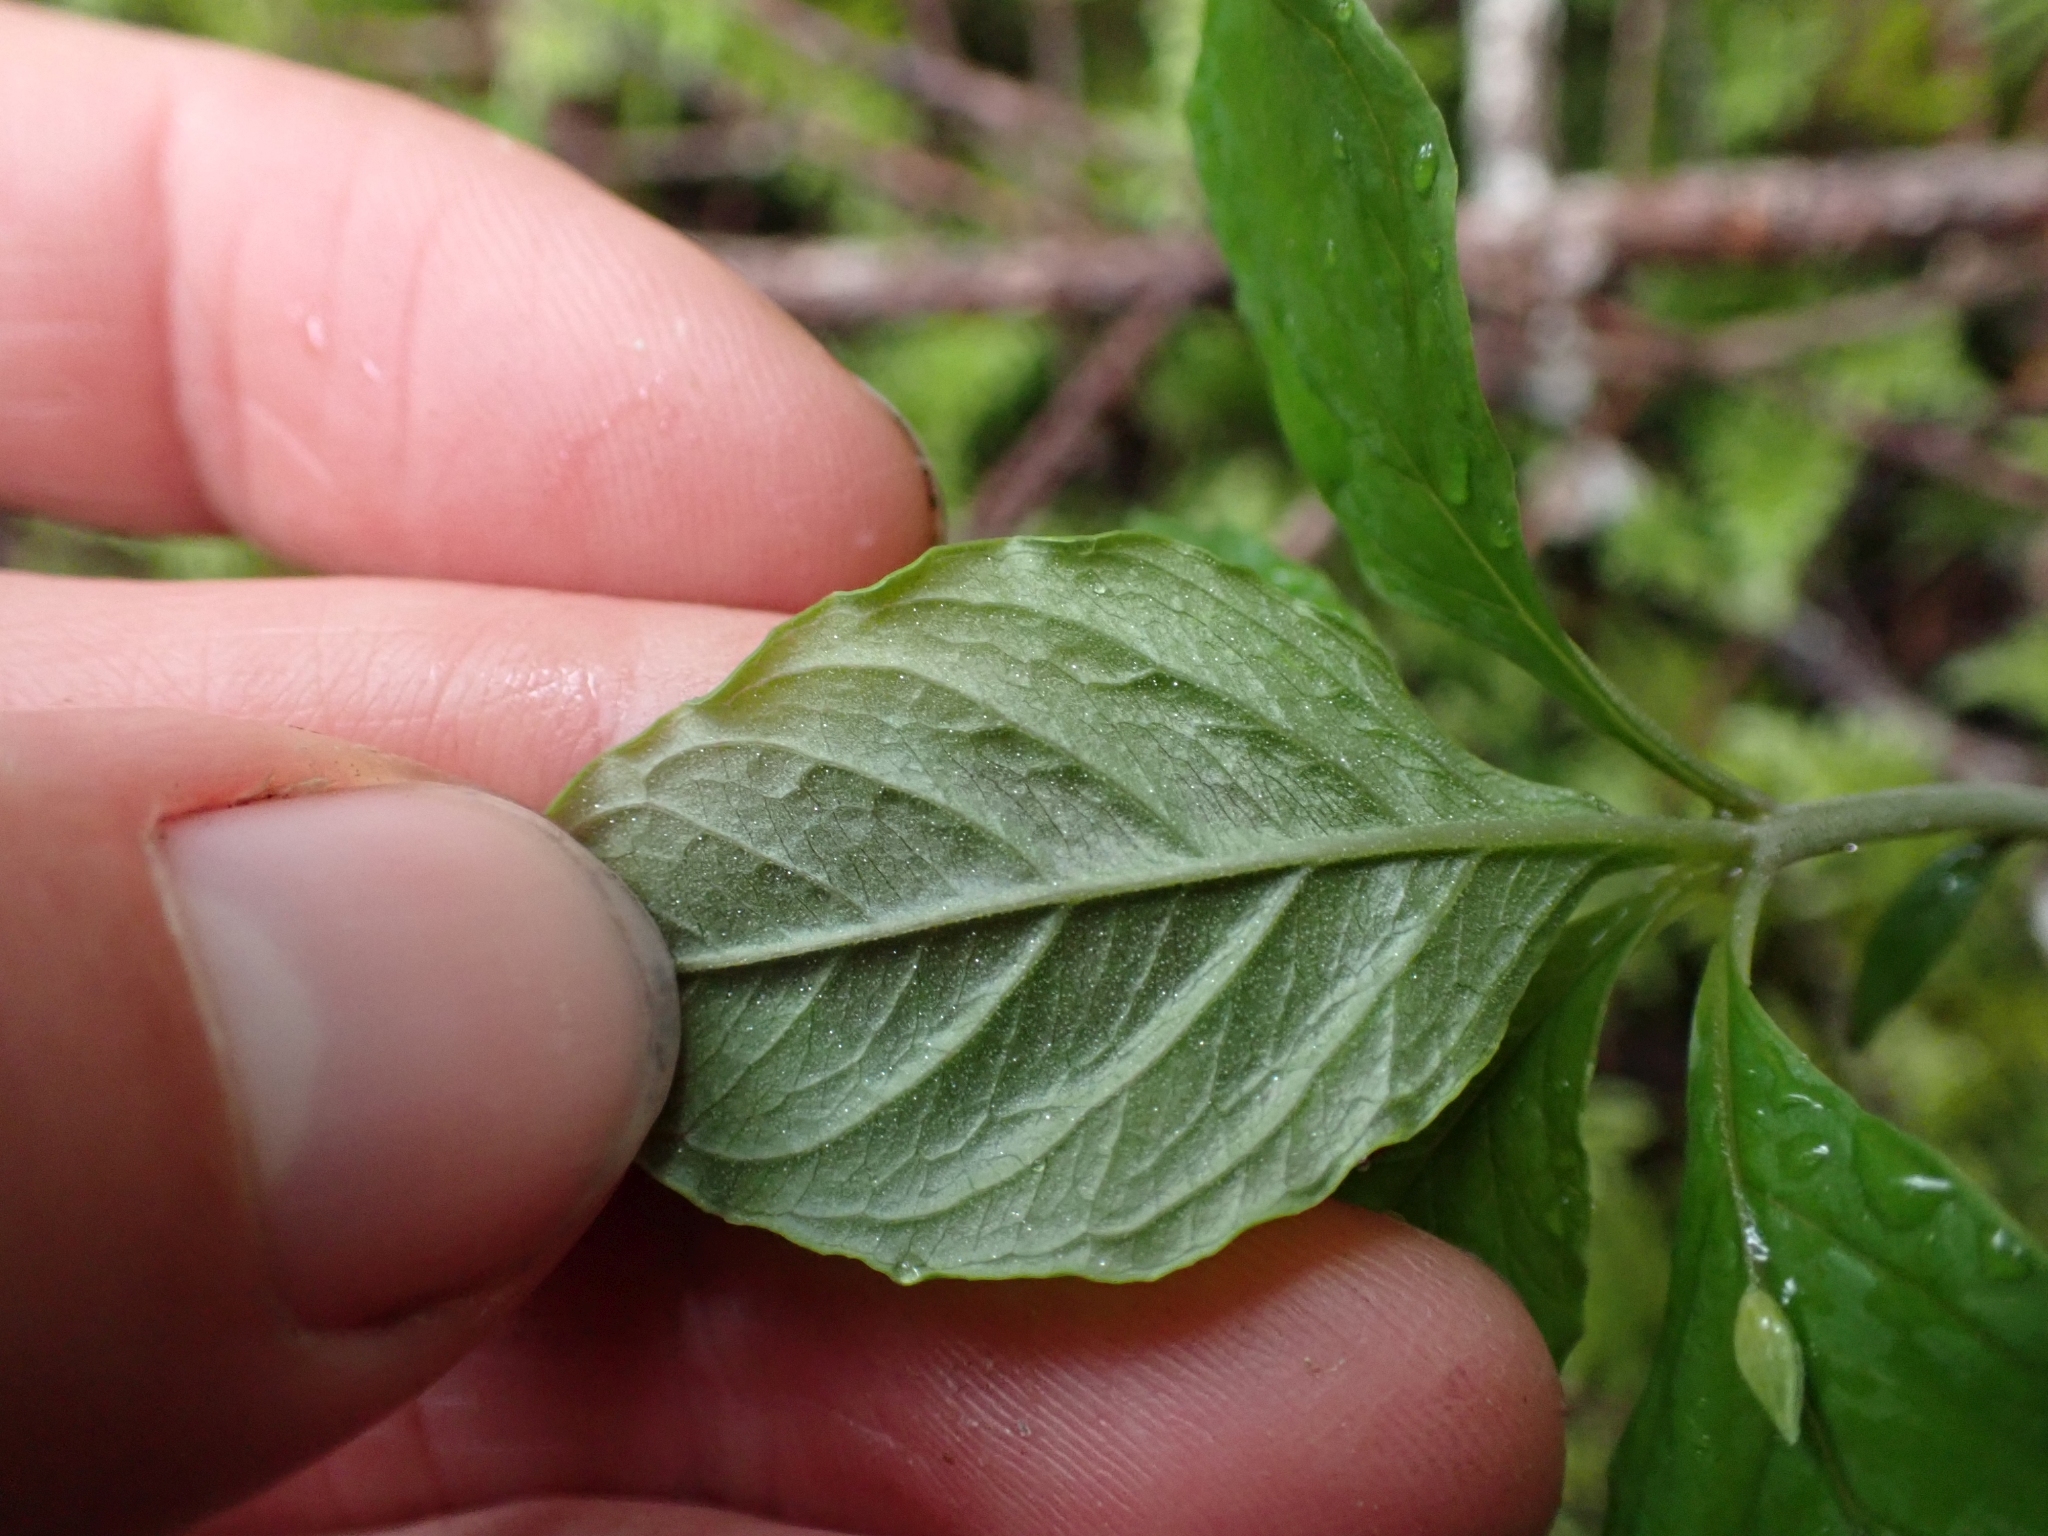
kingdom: Plantae
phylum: Tracheophyta
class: Magnoliopsida
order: Ericales
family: Primulaceae
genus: Lysimachia
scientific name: Lysimachia latifolia
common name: Pacific starflower
